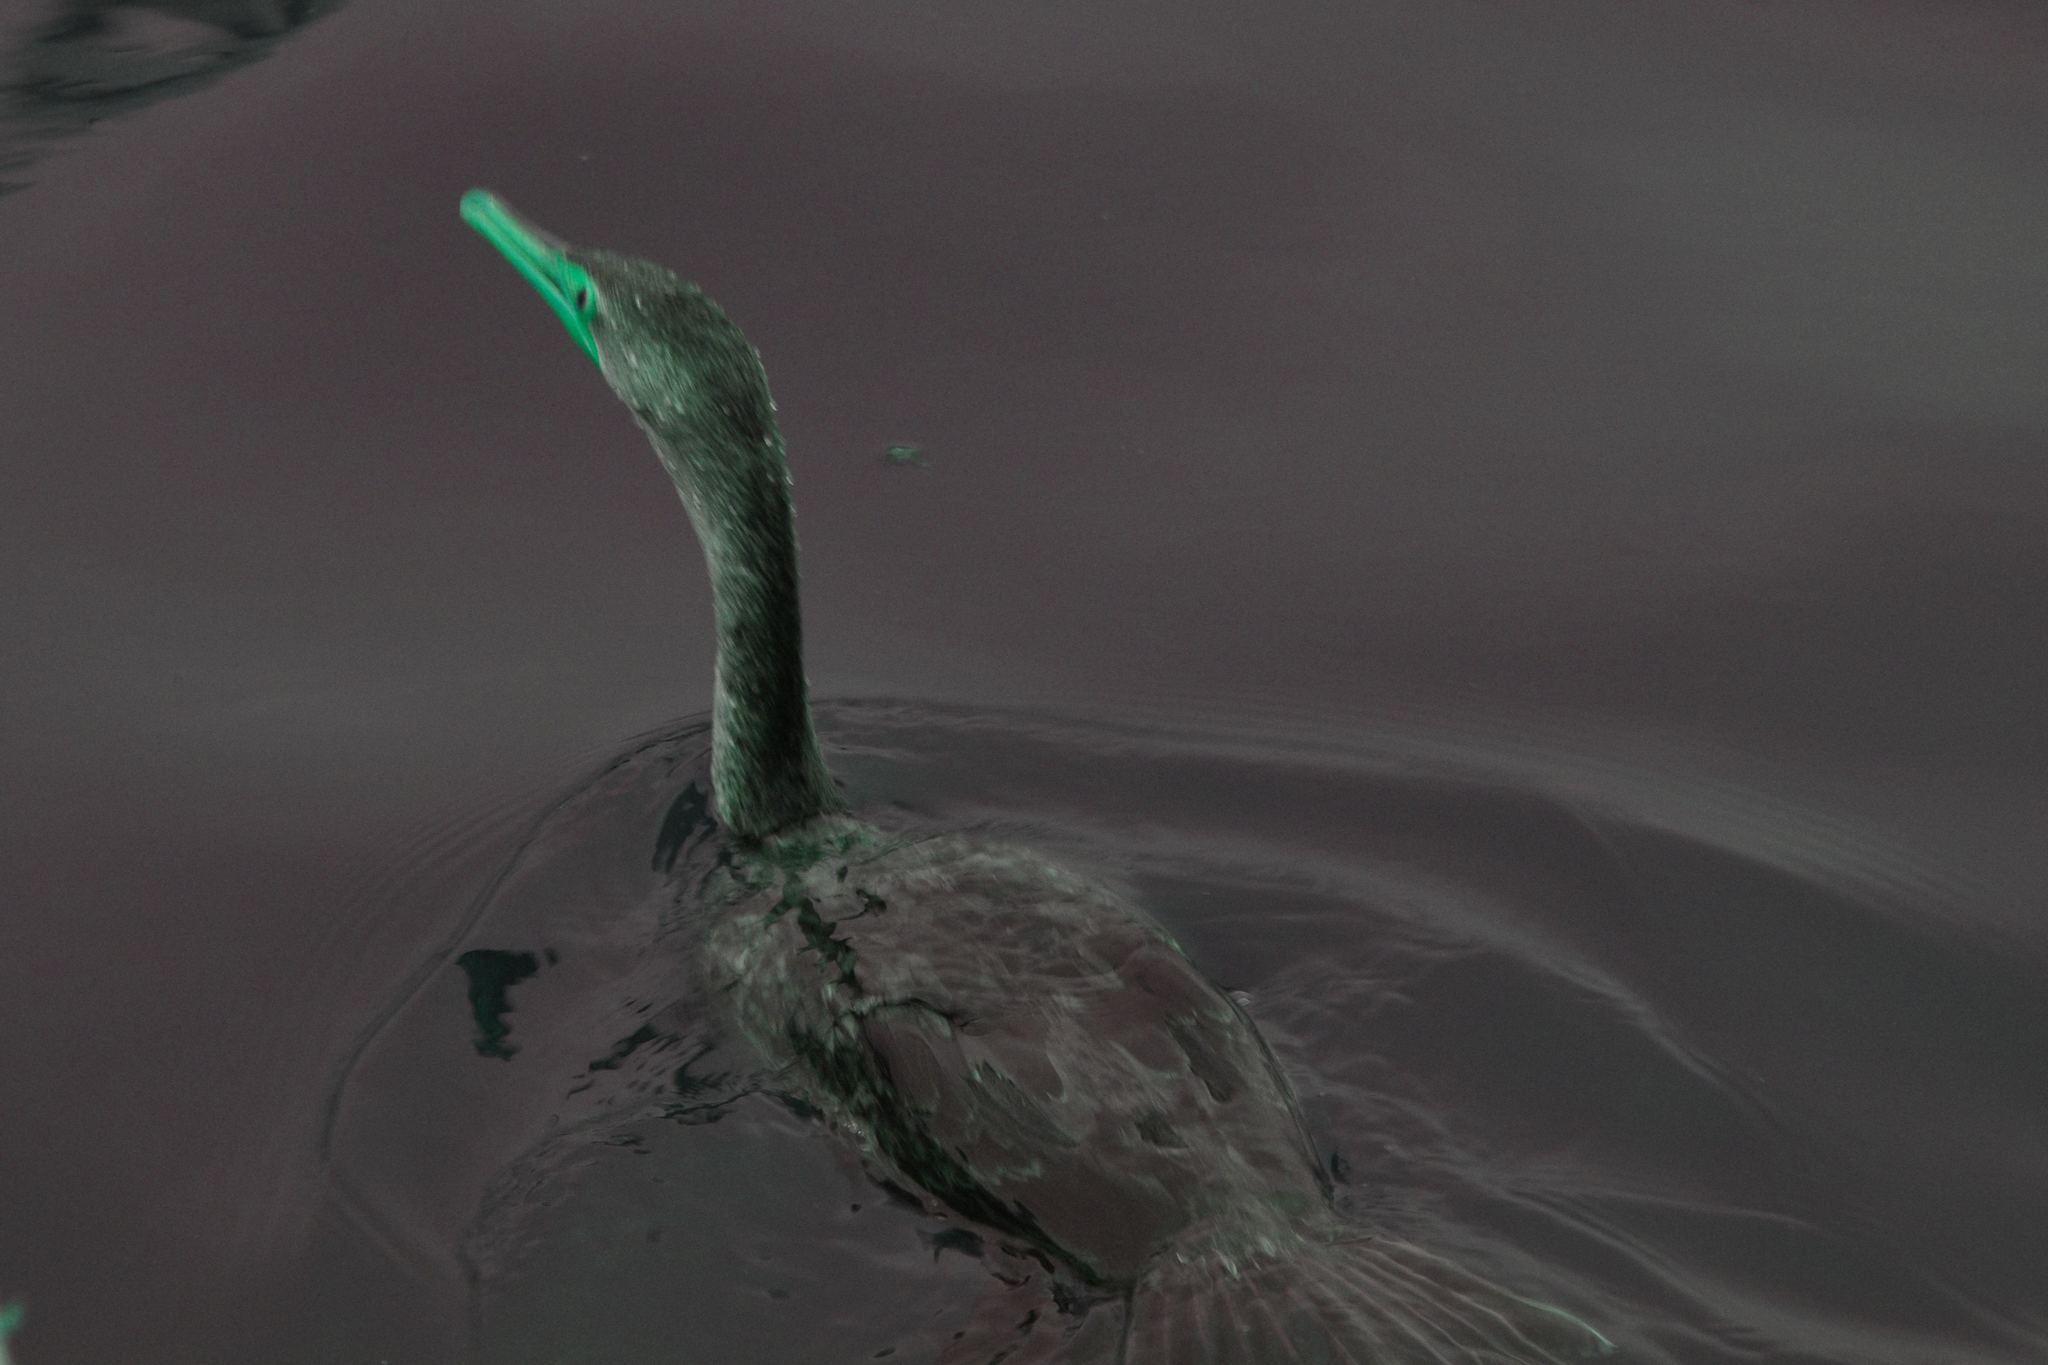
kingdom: Animalia
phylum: Chordata
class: Aves
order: Suliformes
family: Phalacrocoracidae
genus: Phalacrocorax
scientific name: Phalacrocorax auritus
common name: Double-crested cormorant
